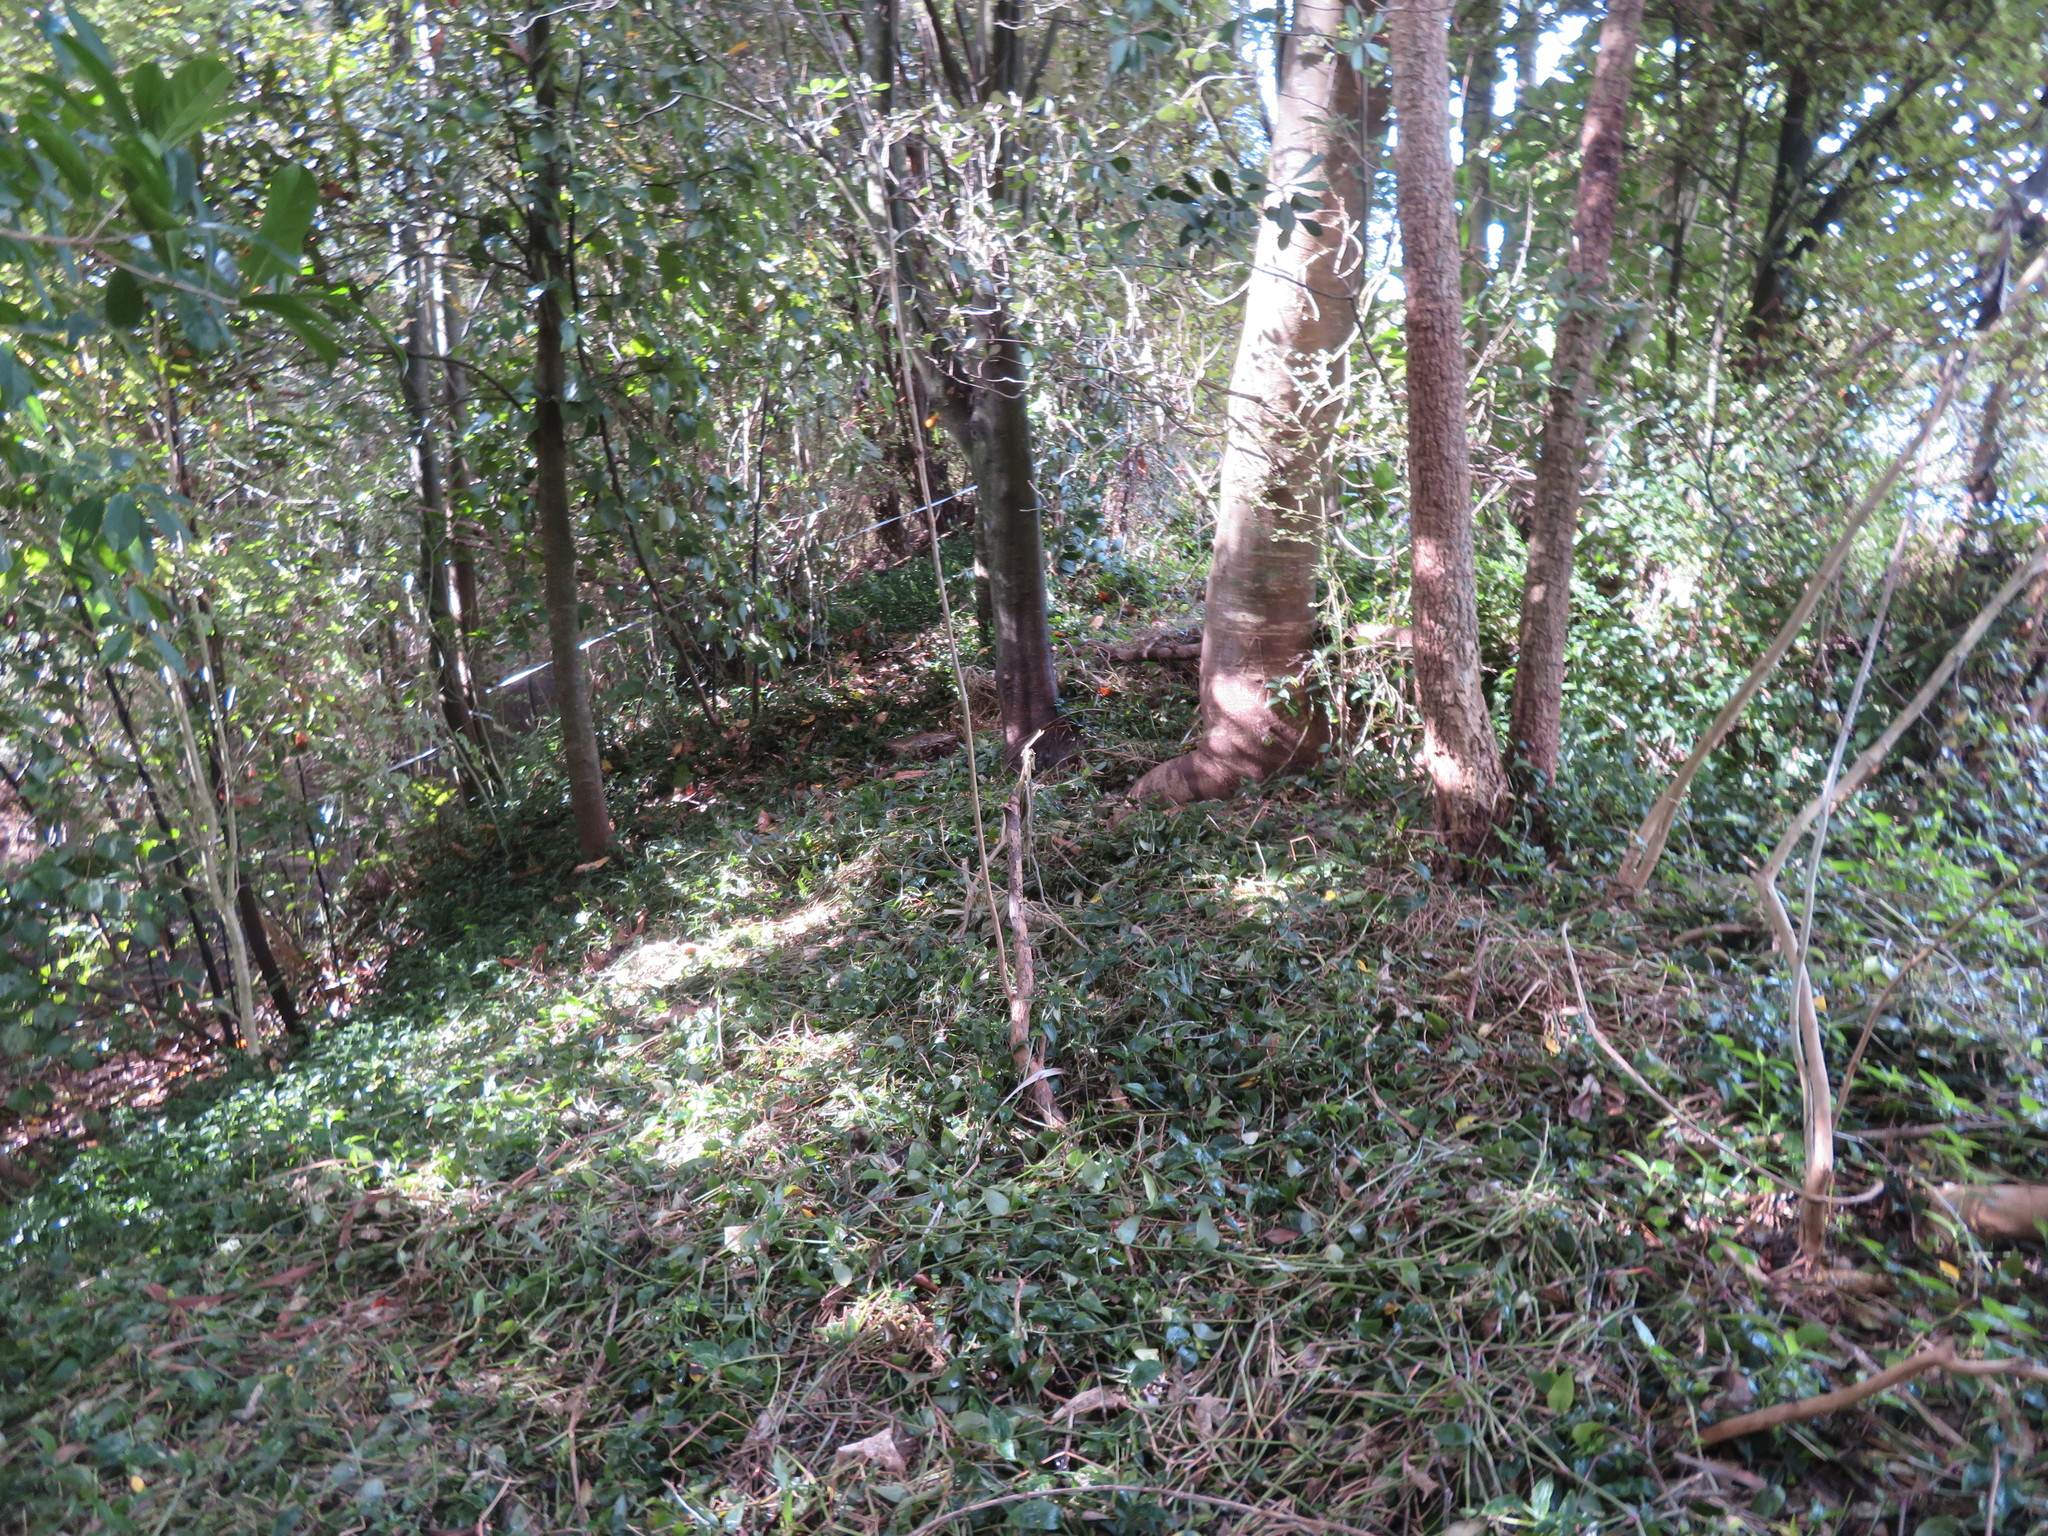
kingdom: Plantae
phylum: Tracheophyta
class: Liliopsida
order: Commelinales
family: Commelinaceae
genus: Tradescantia
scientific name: Tradescantia fluminensis
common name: Wandering-jew
